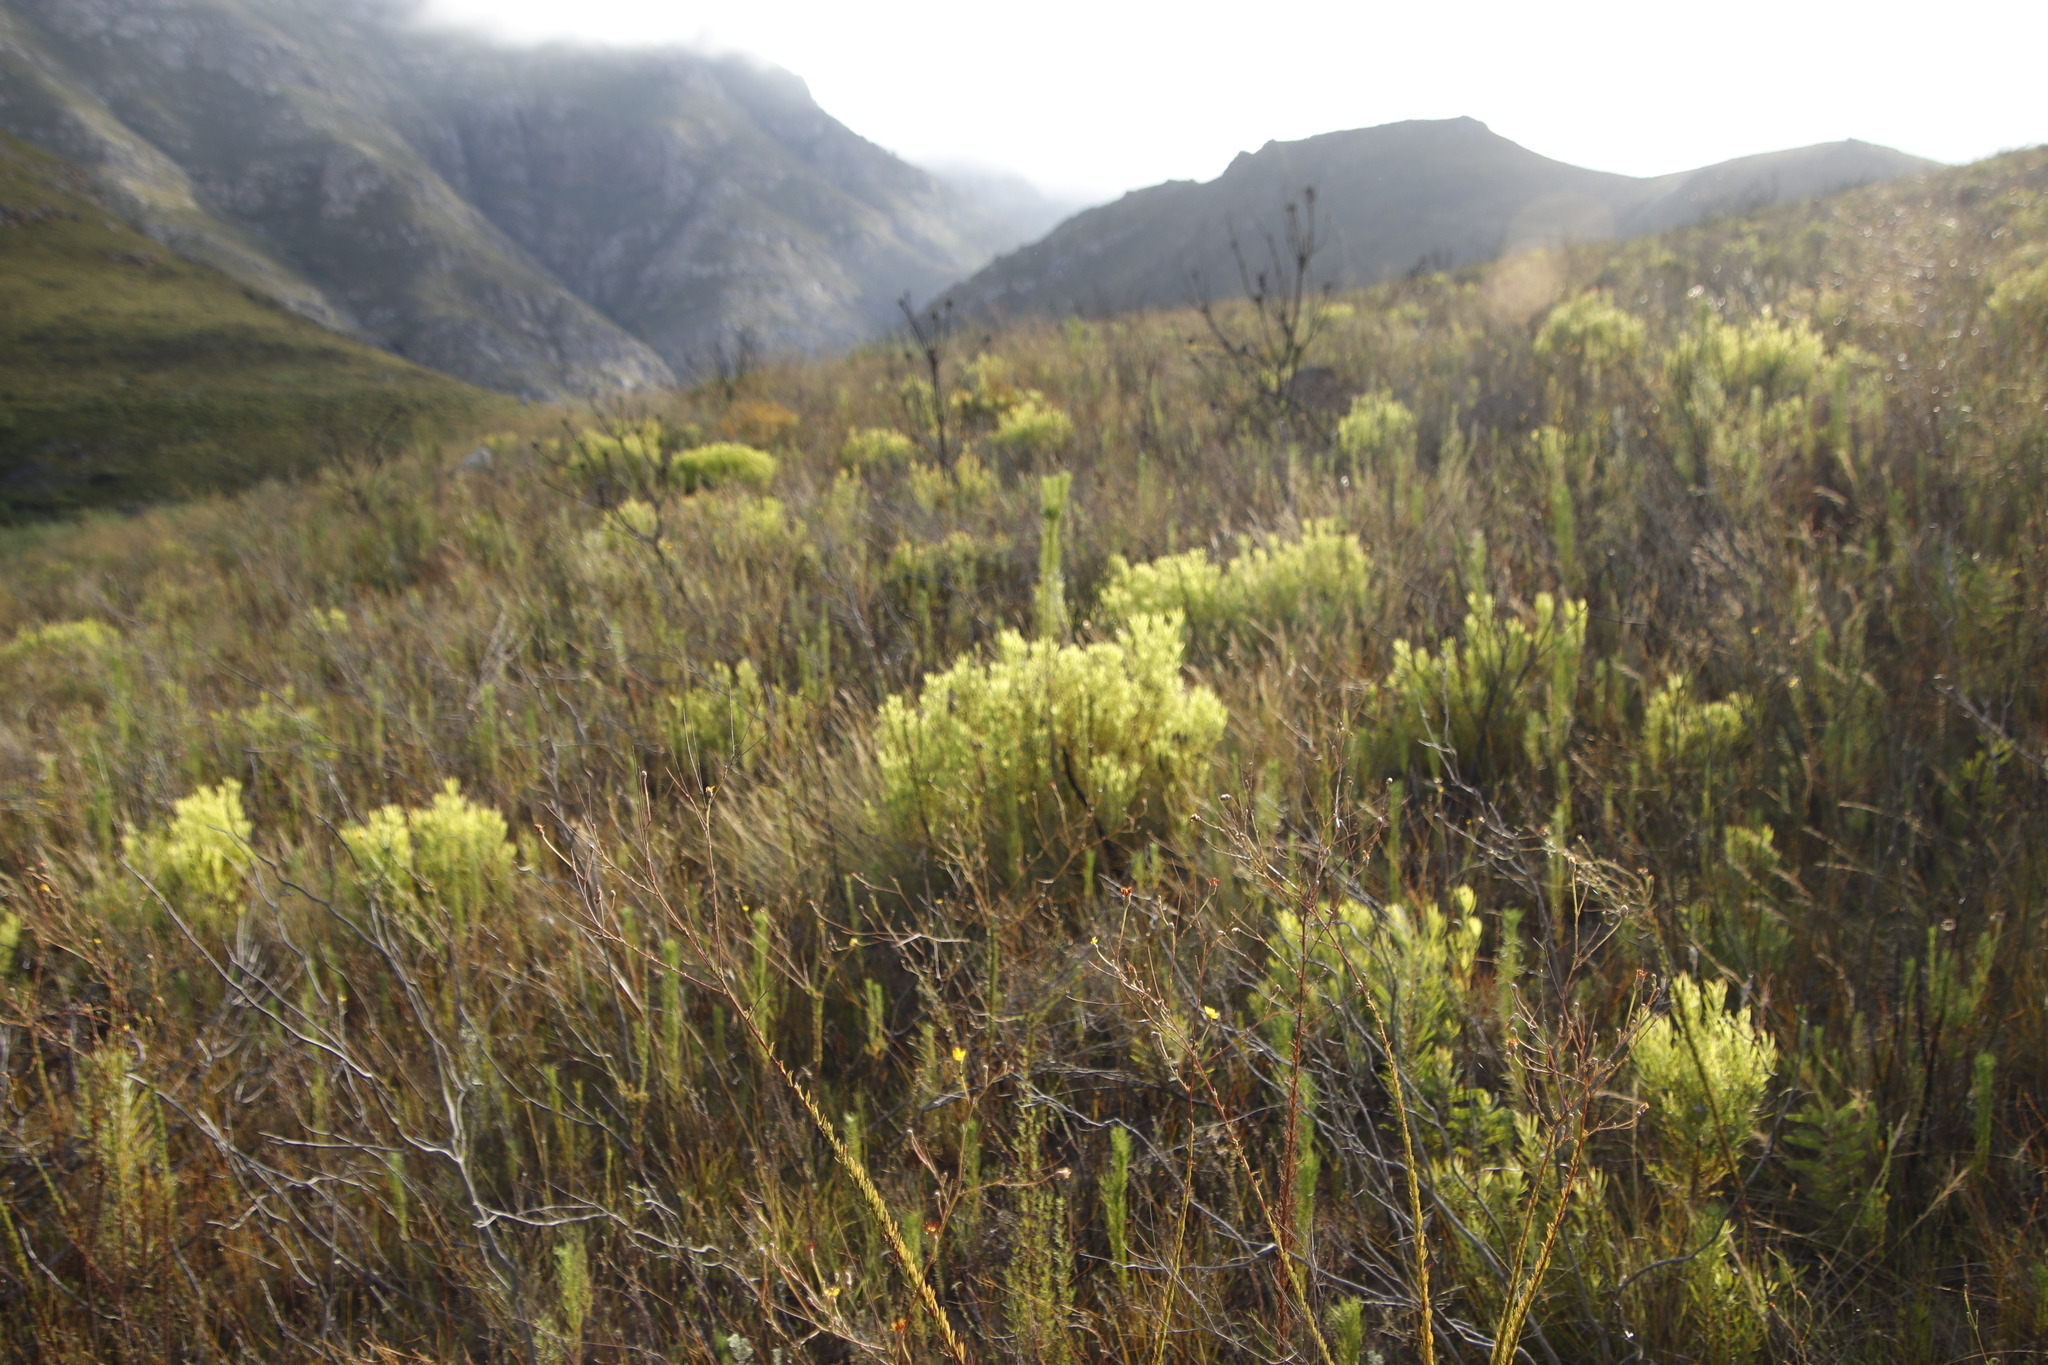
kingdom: Plantae
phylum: Tracheophyta
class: Magnoliopsida
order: Proteales
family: Proteaceae
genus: Leucadendron
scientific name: Leucadendron salignum
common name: Common sunshine conebush
